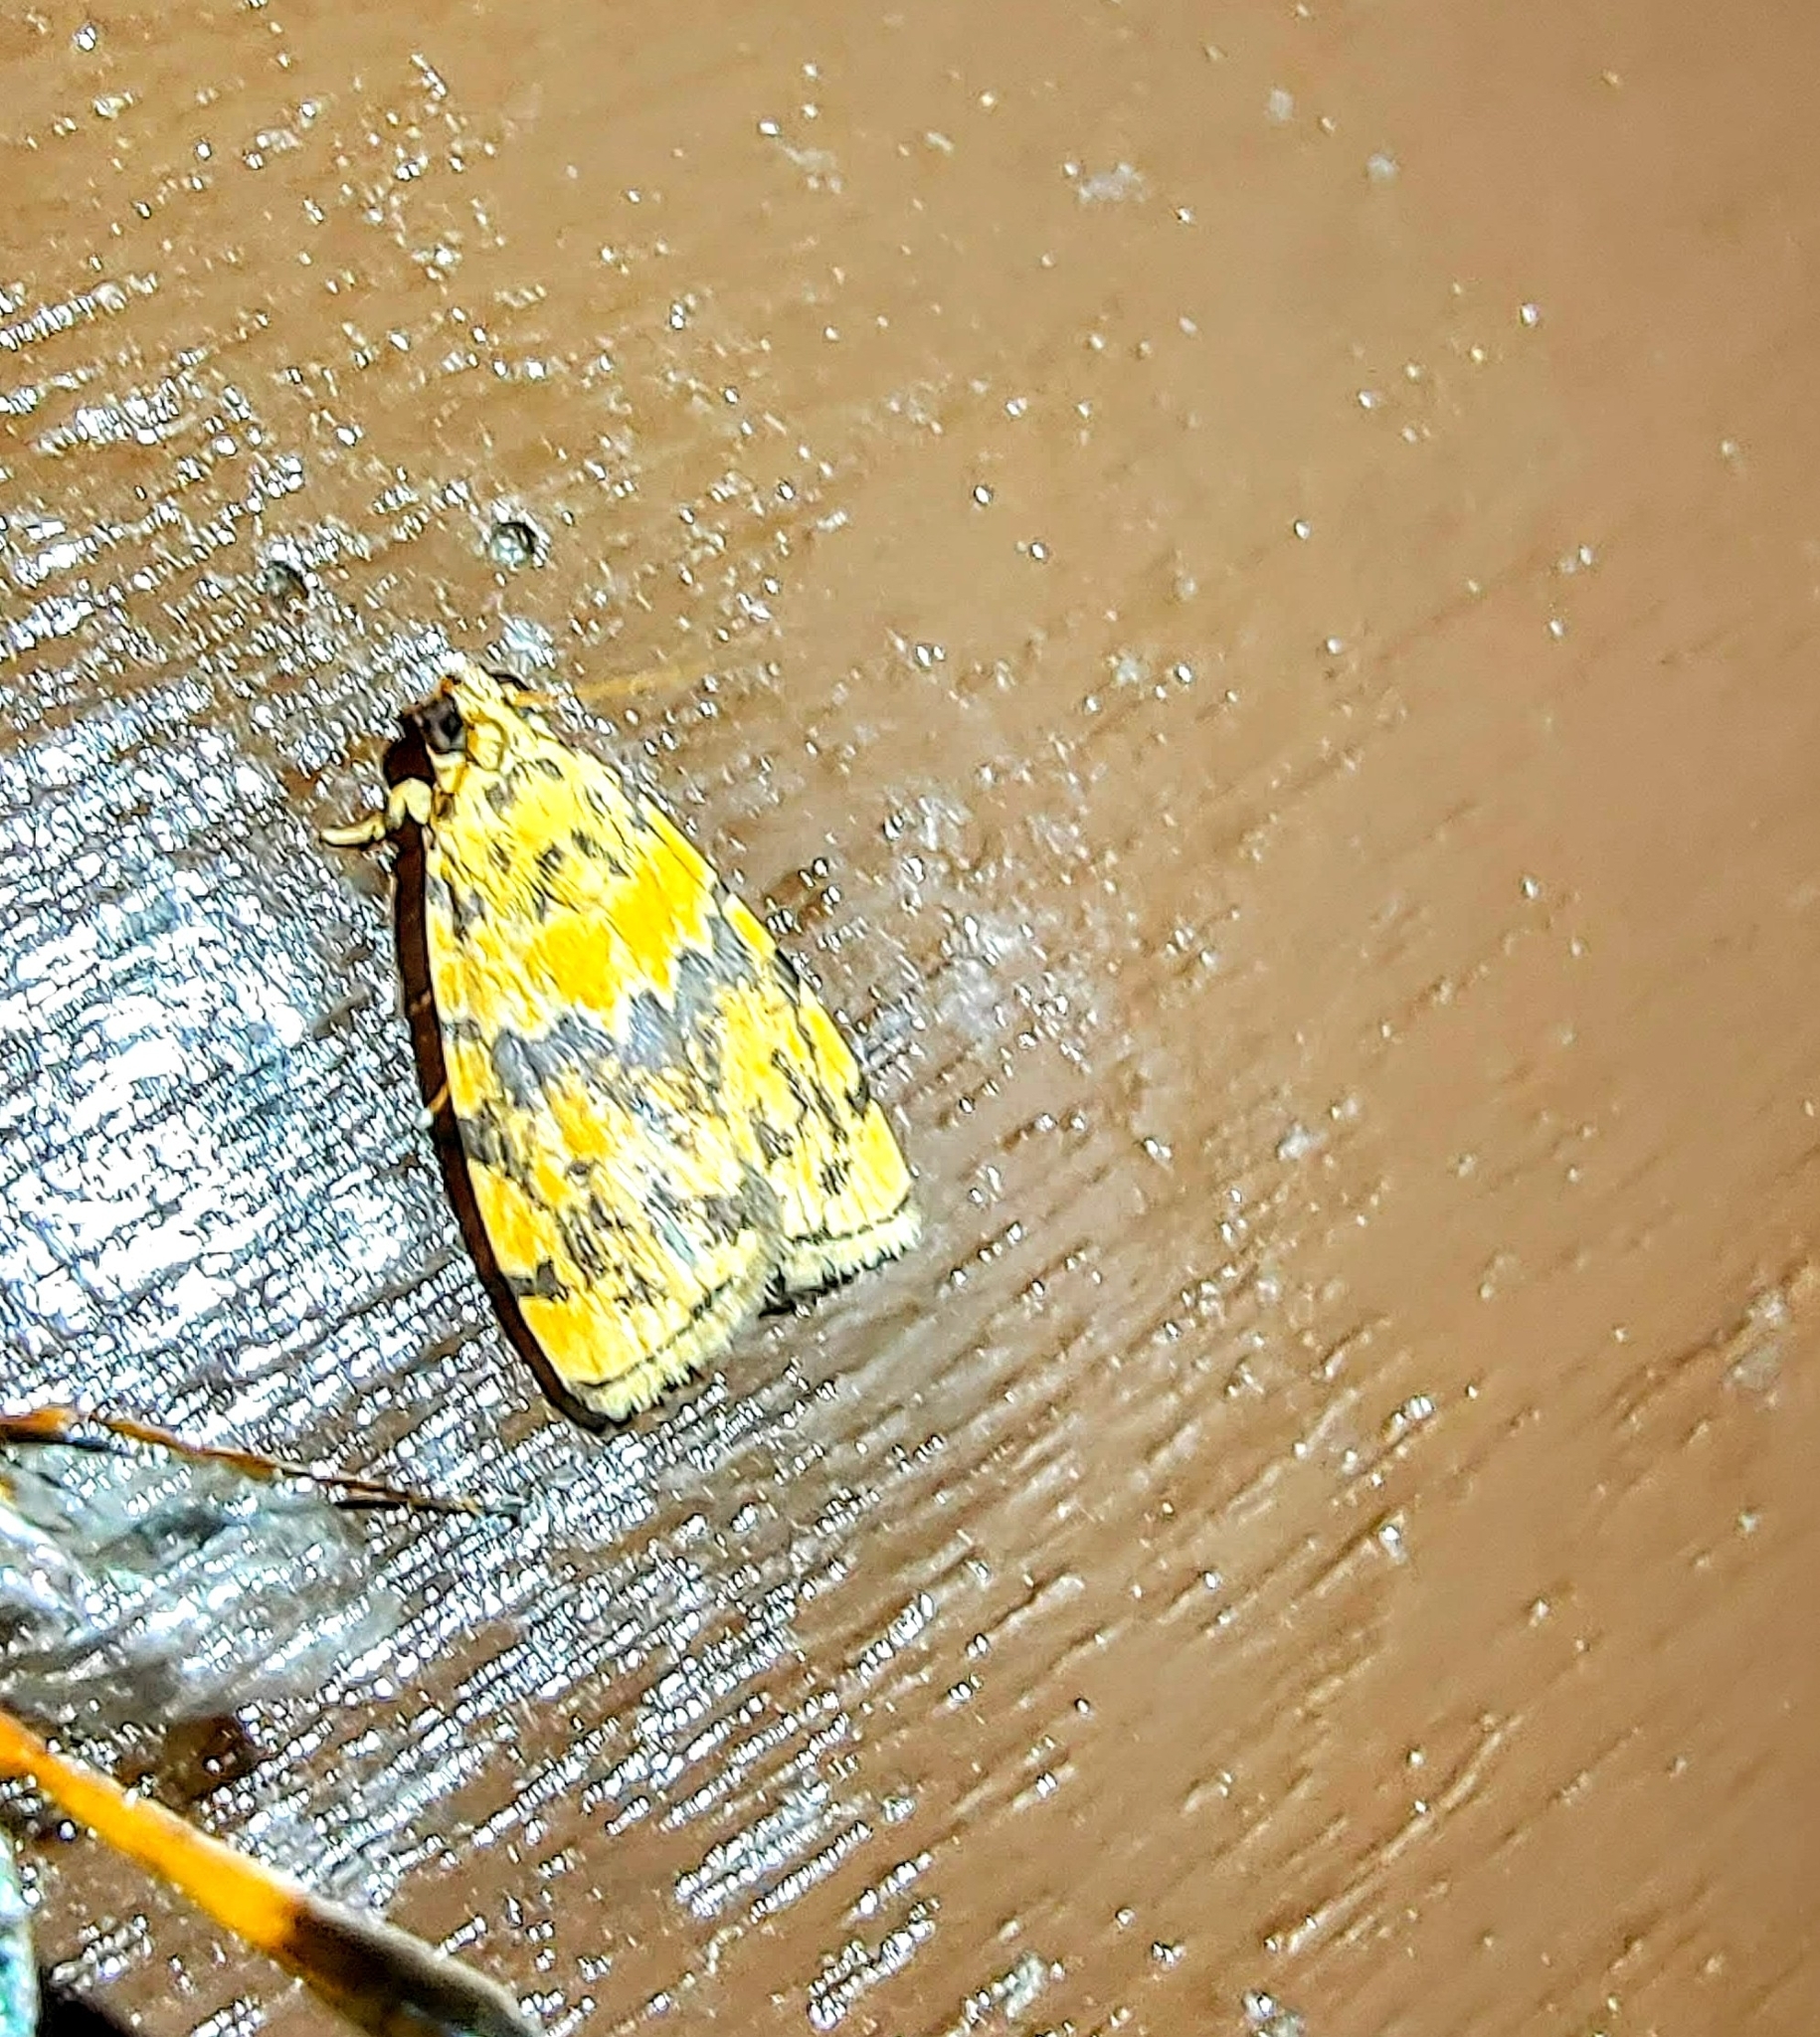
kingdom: Animalia
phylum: Arthropoda
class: Insecta
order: Lepidoptera
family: Immidae
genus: Imma
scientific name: Imma mackwoodii
